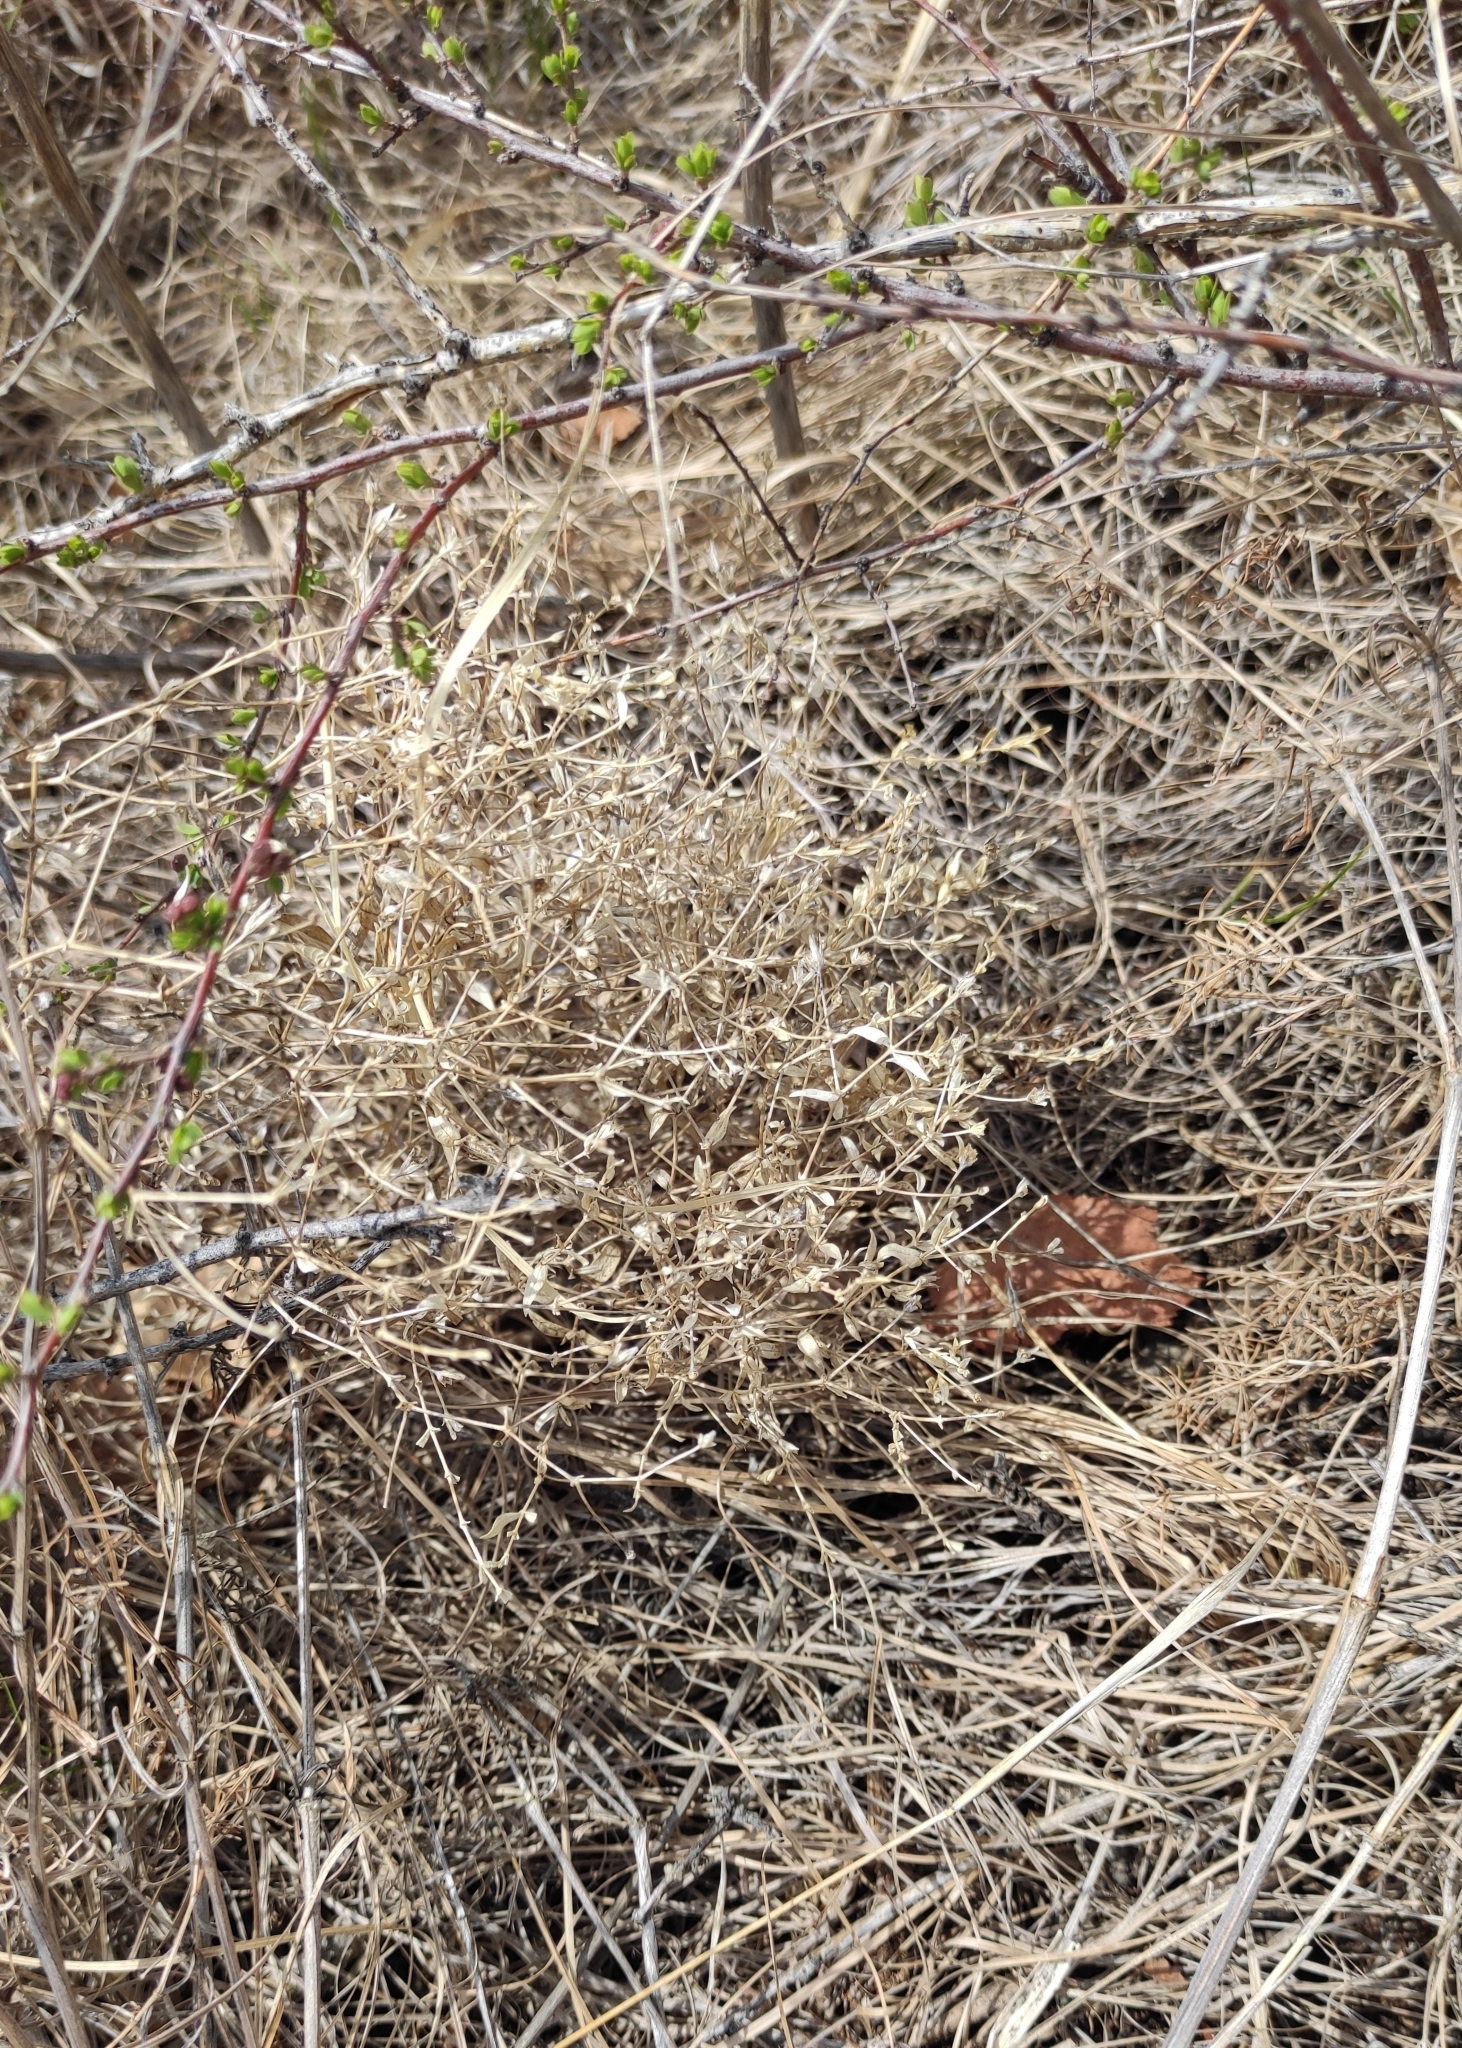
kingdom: Plantae
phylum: Tracheophyta
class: Magnoliopsida
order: Caryophyllales
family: Caryophyllaceae
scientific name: Caryophyllaceae
